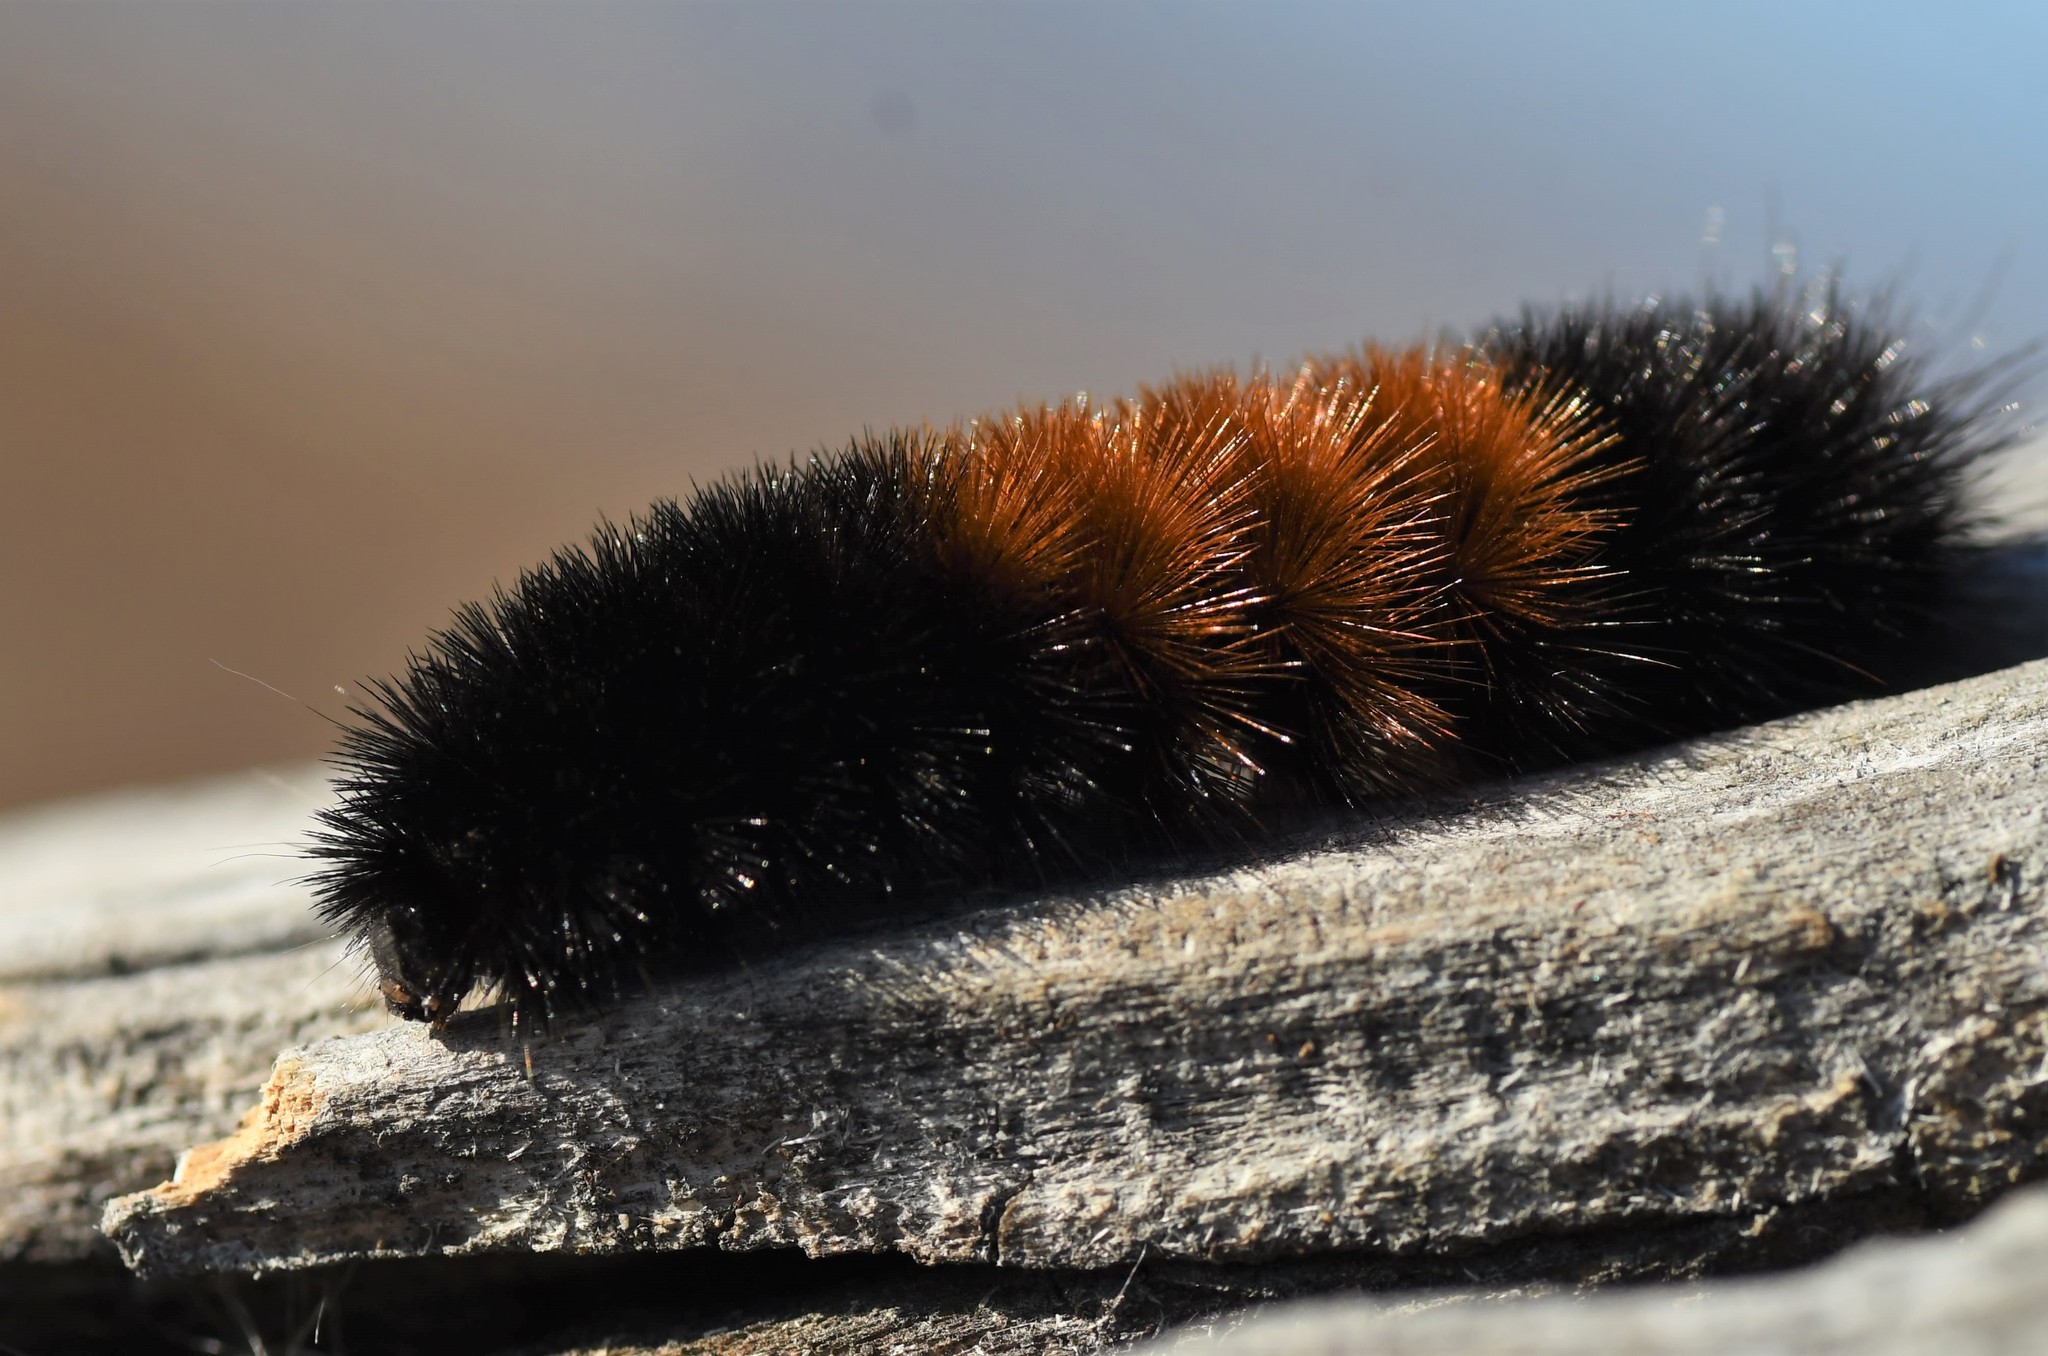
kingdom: Animalia
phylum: Arthropoda
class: Insecta
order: Lepidoptera
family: Erebidae
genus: Pyrrharctia
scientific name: Pyrrharctia isabella
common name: Isabella tiger moth
